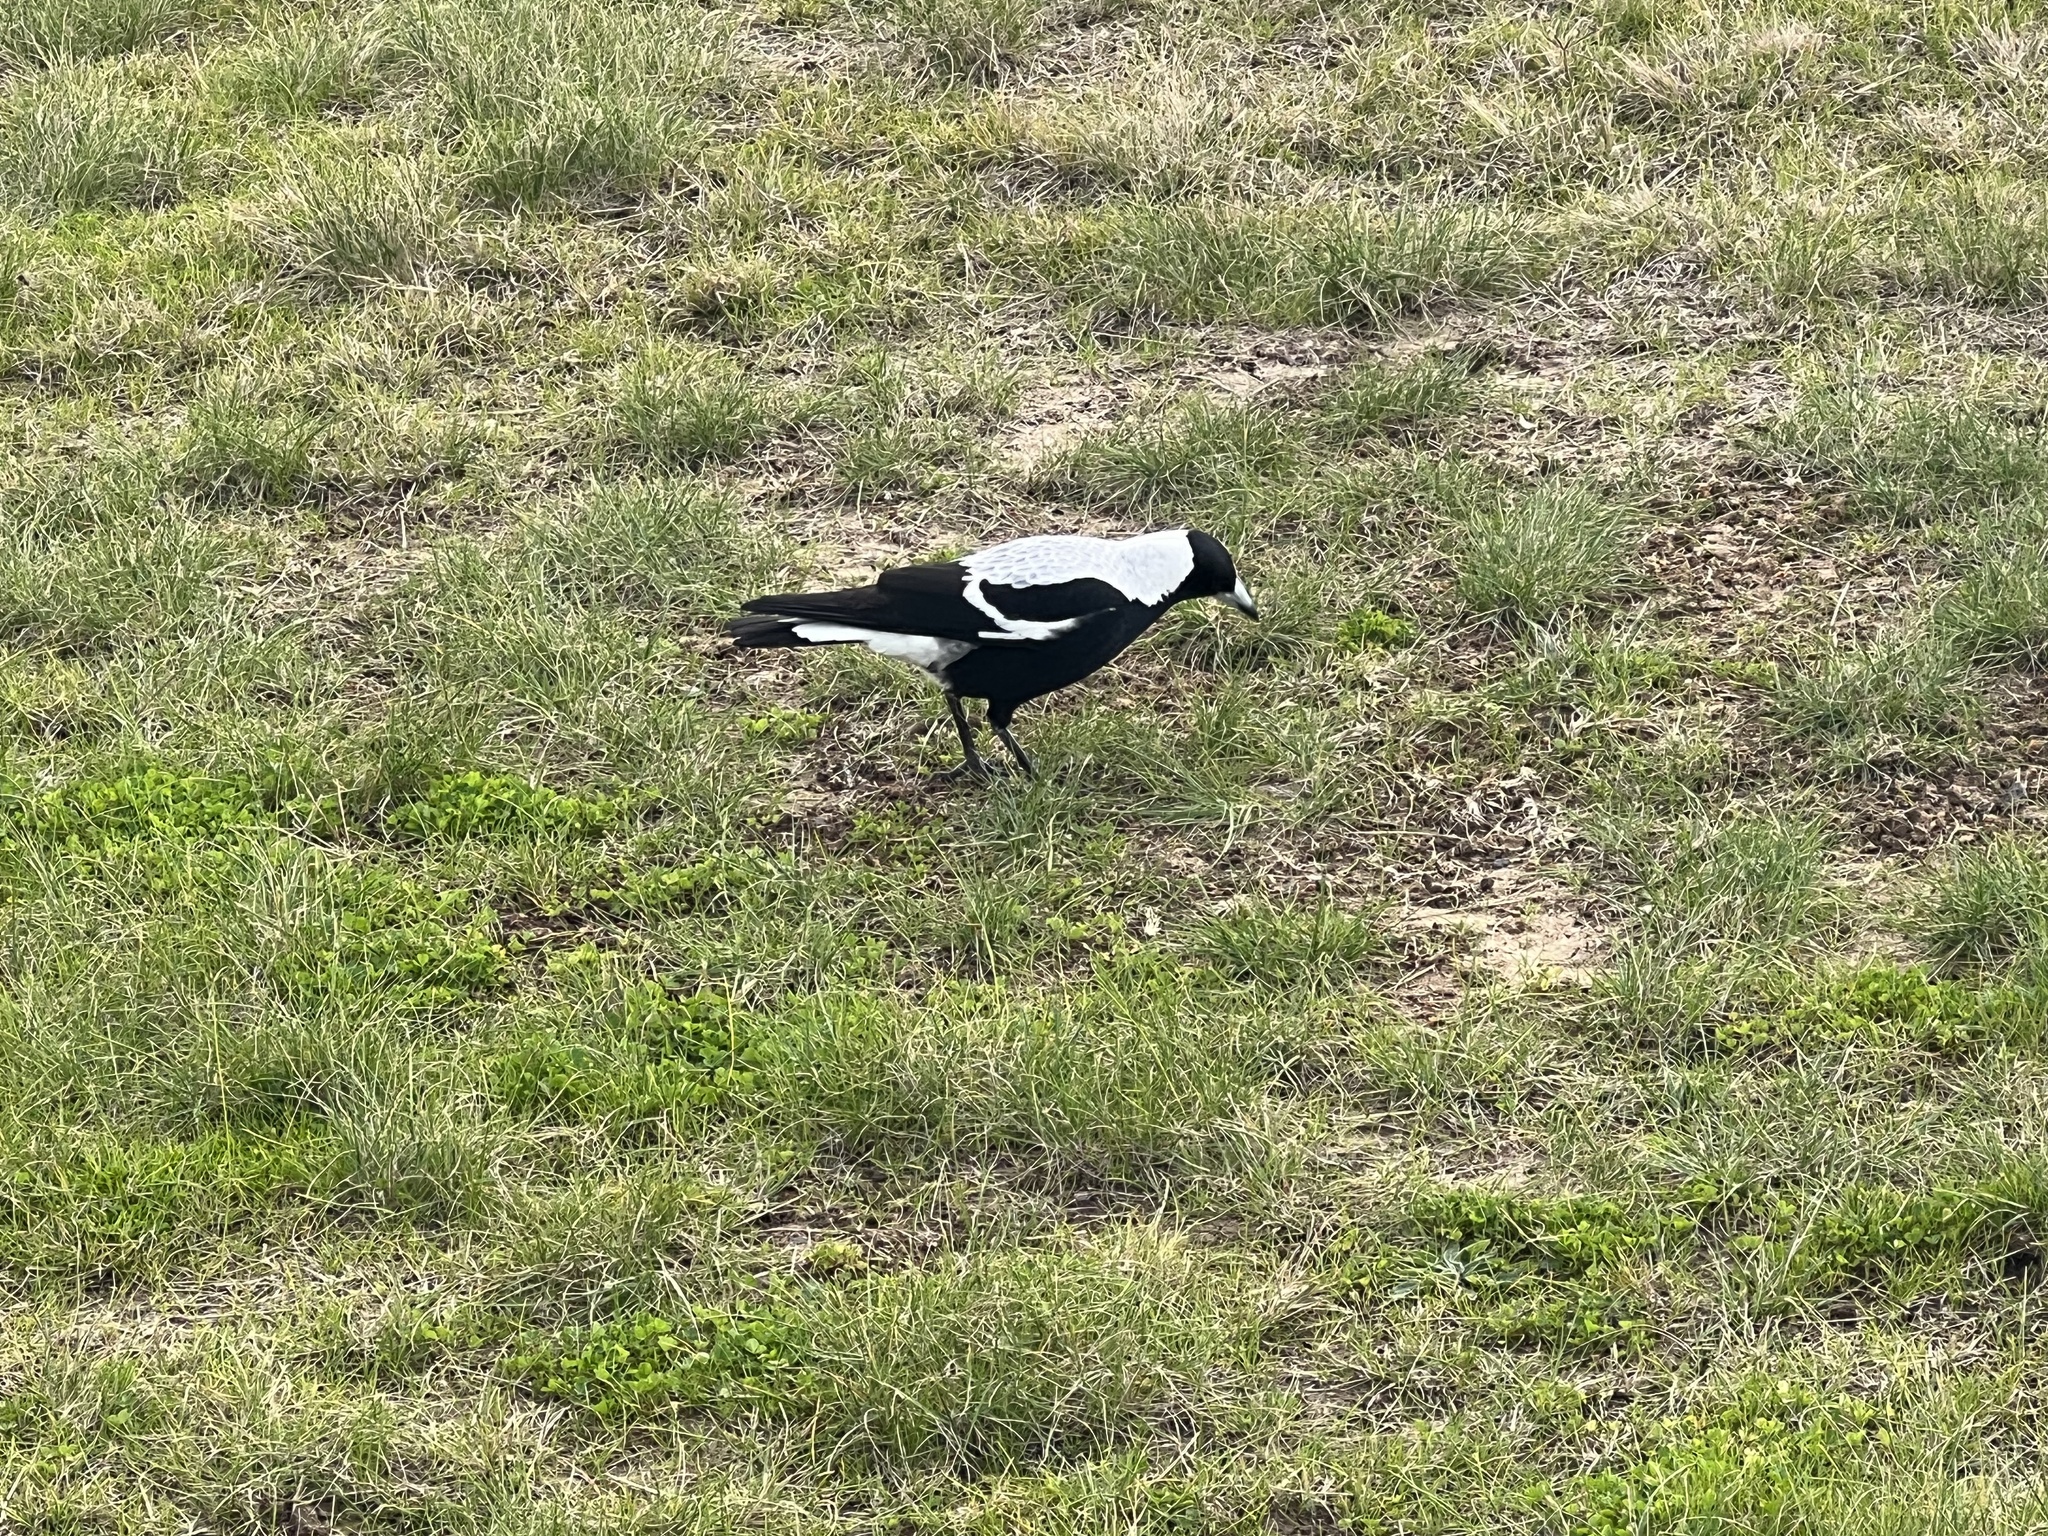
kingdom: Animalia
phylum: Chordata
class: Aves
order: Passeriformes
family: Cracticidae
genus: Gymnorhina
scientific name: Gymnorhina tibicen
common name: Australian magpie
